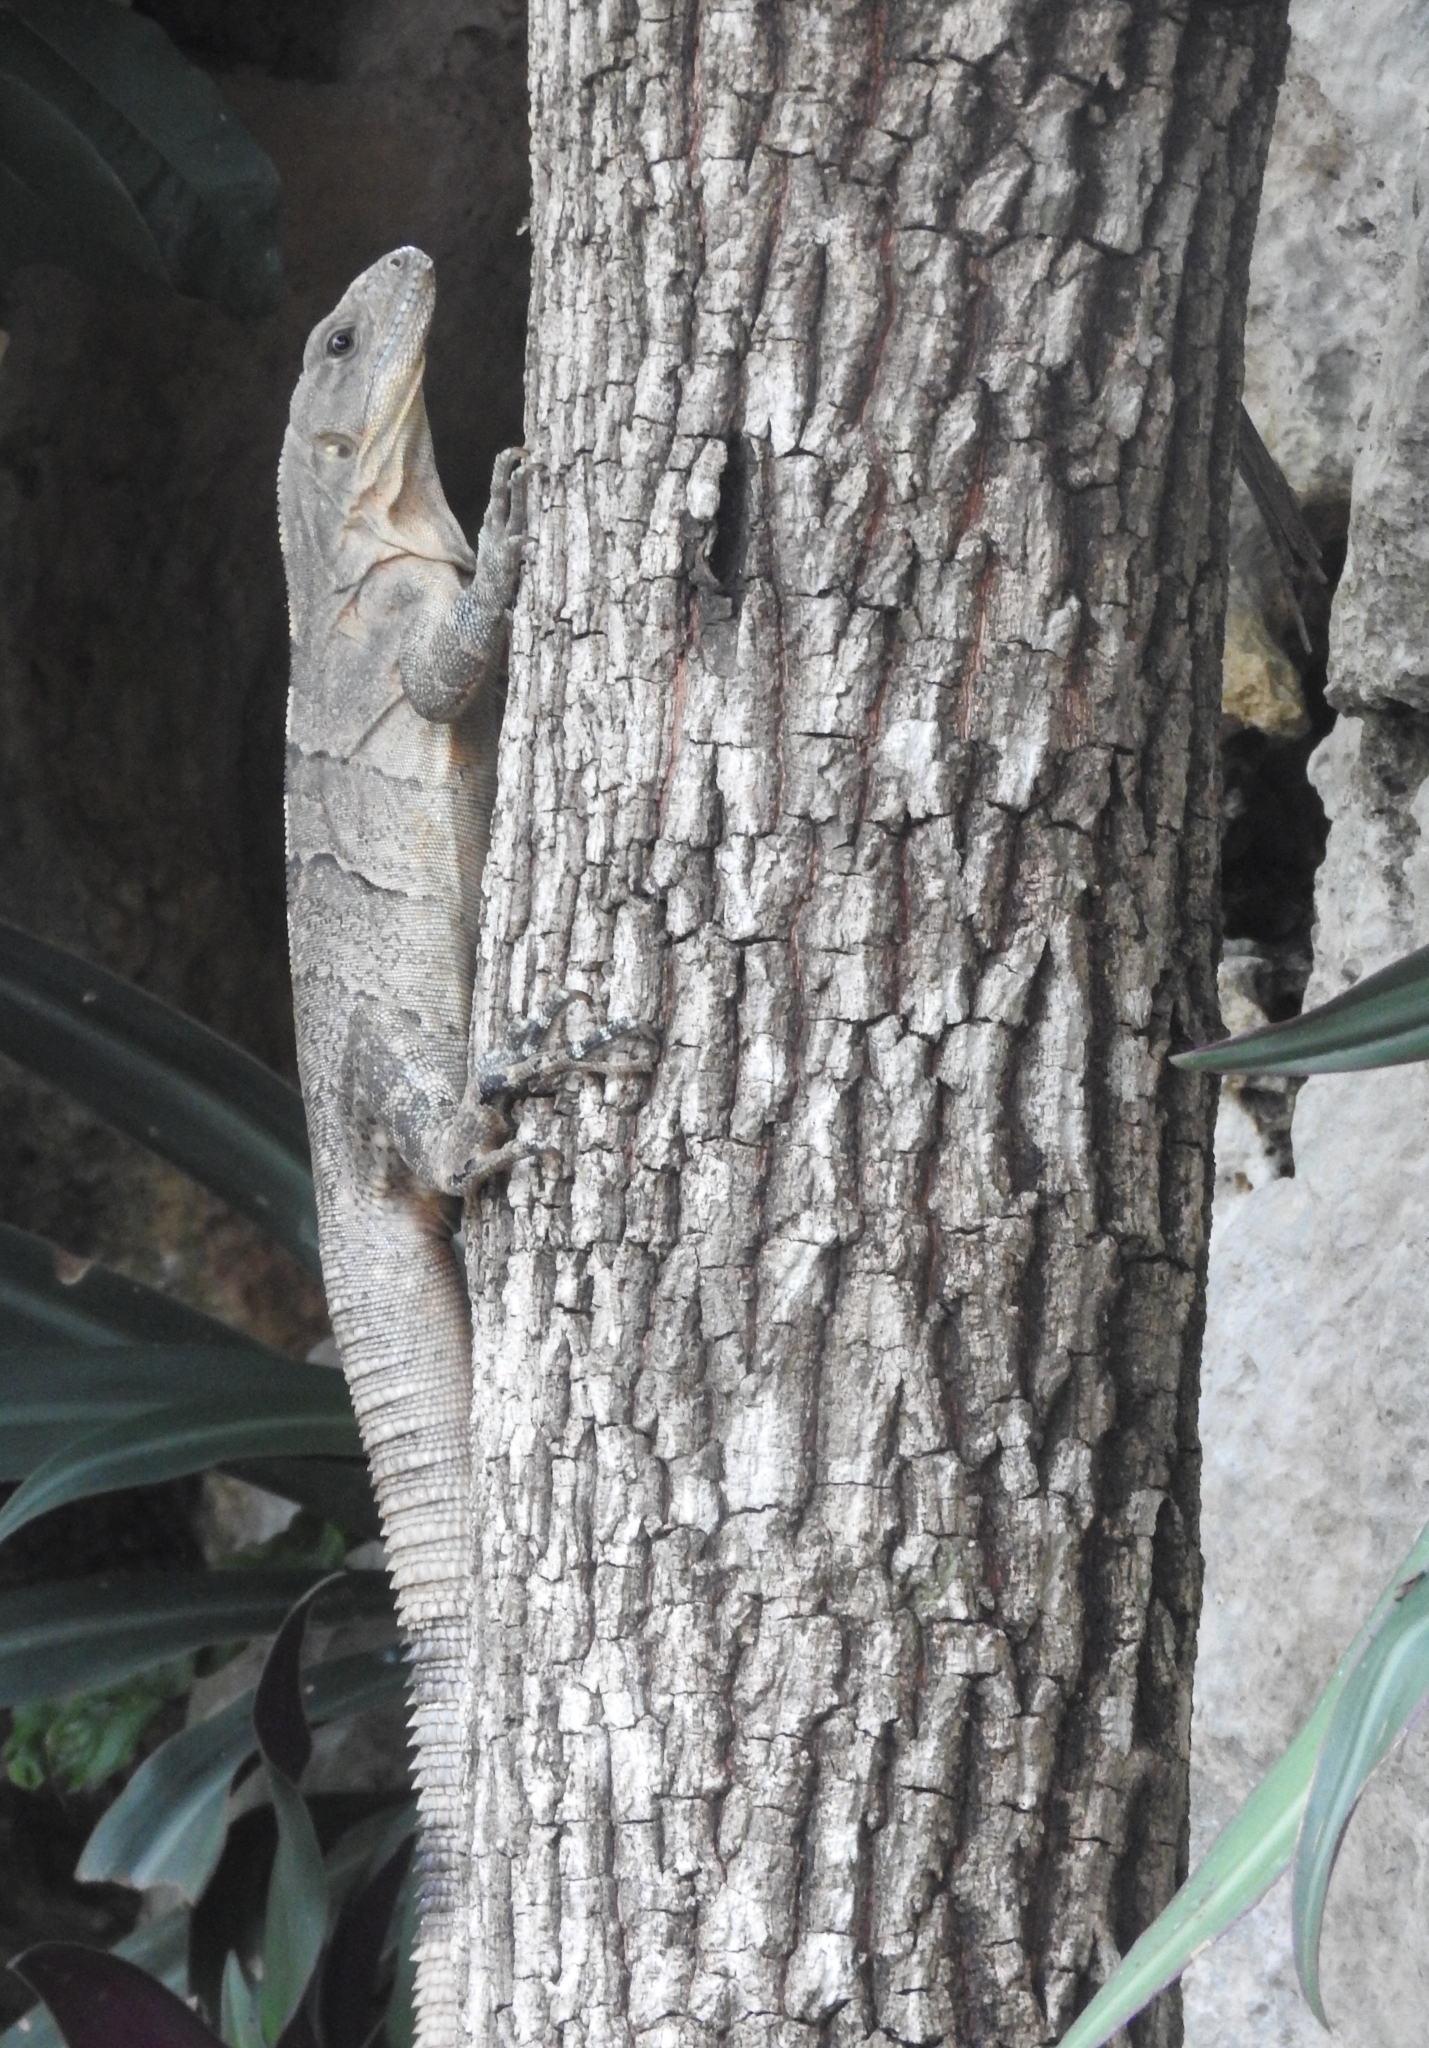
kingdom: Animalia
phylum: Chordata
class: Squamata
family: Iguanidae
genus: Ctenosaura
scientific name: Ctenosaura similis
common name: Black spiny-tailed iguana
